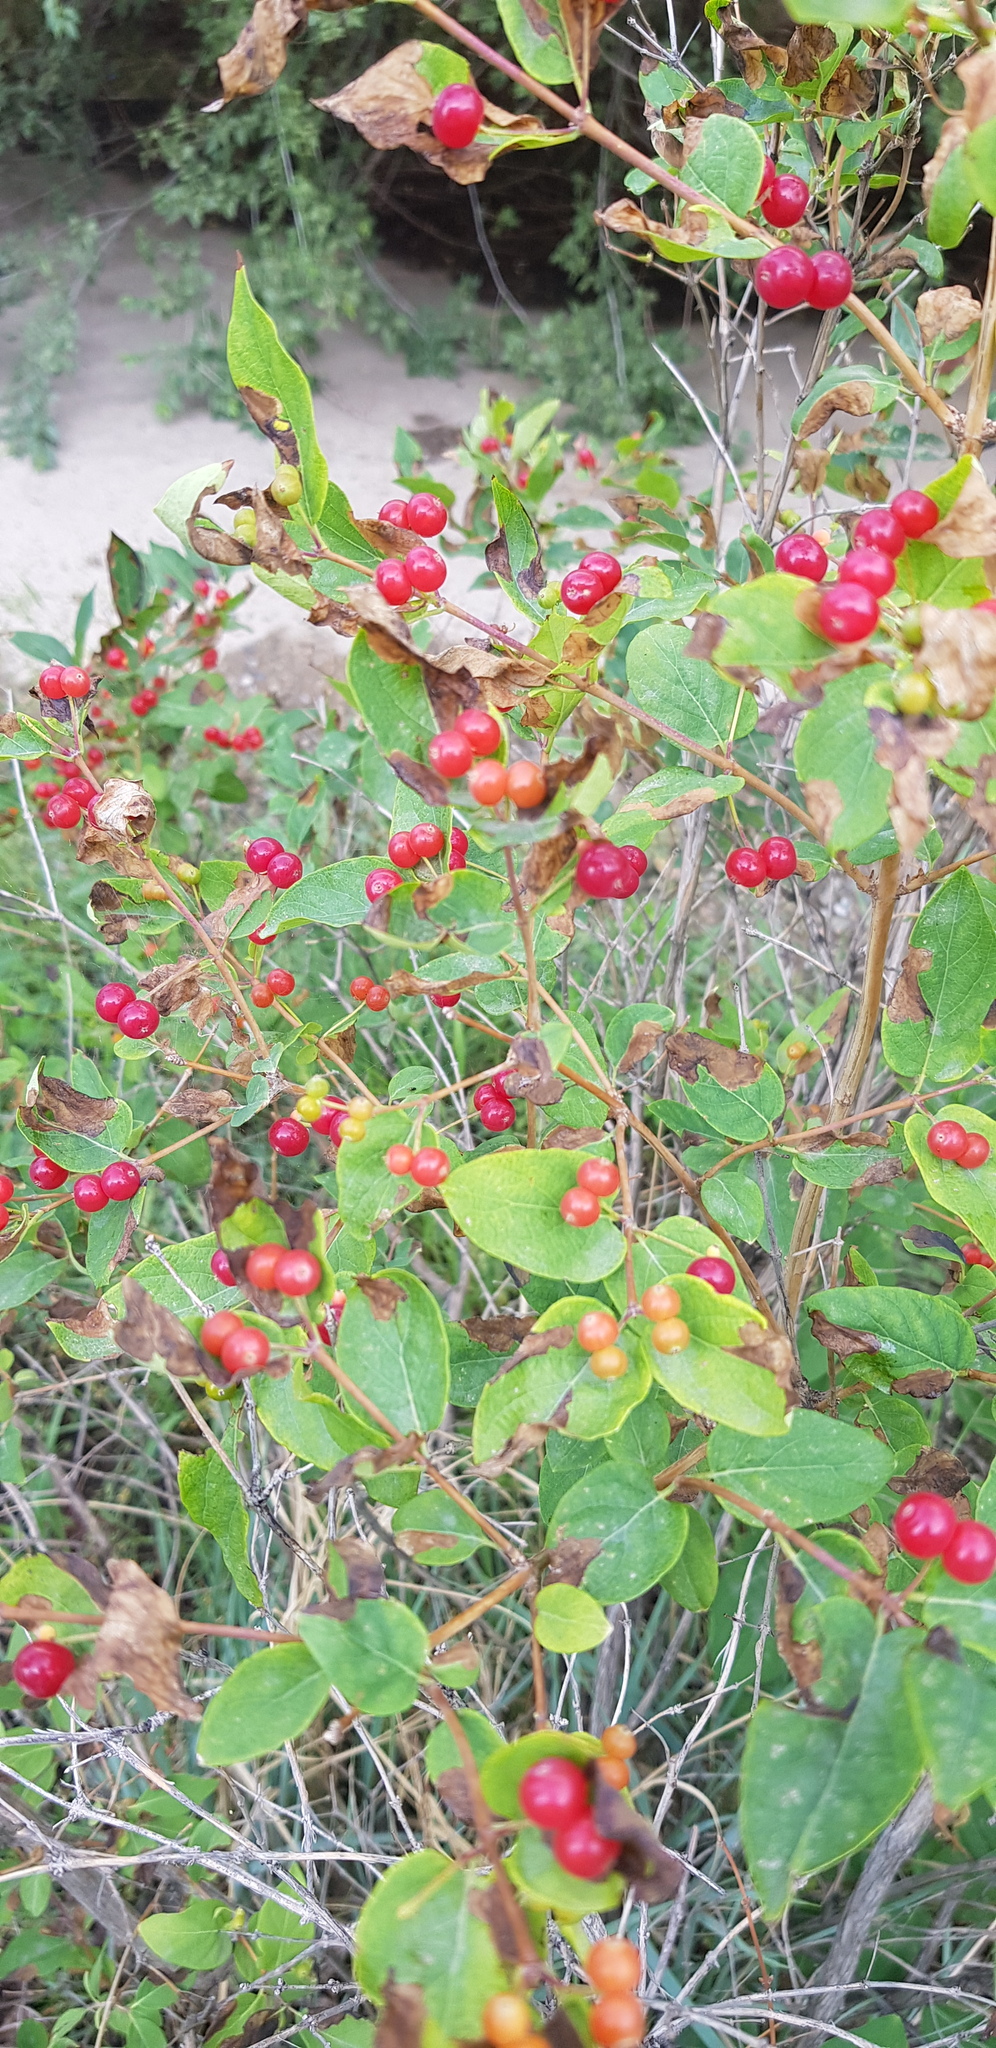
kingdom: Plantae
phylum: Tracheophyta
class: Magnoliopsida
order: Dipsacales
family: Caprifoliaceae
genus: Lonicera
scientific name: Lonicera tatarica
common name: Tatarian honeysuckle
